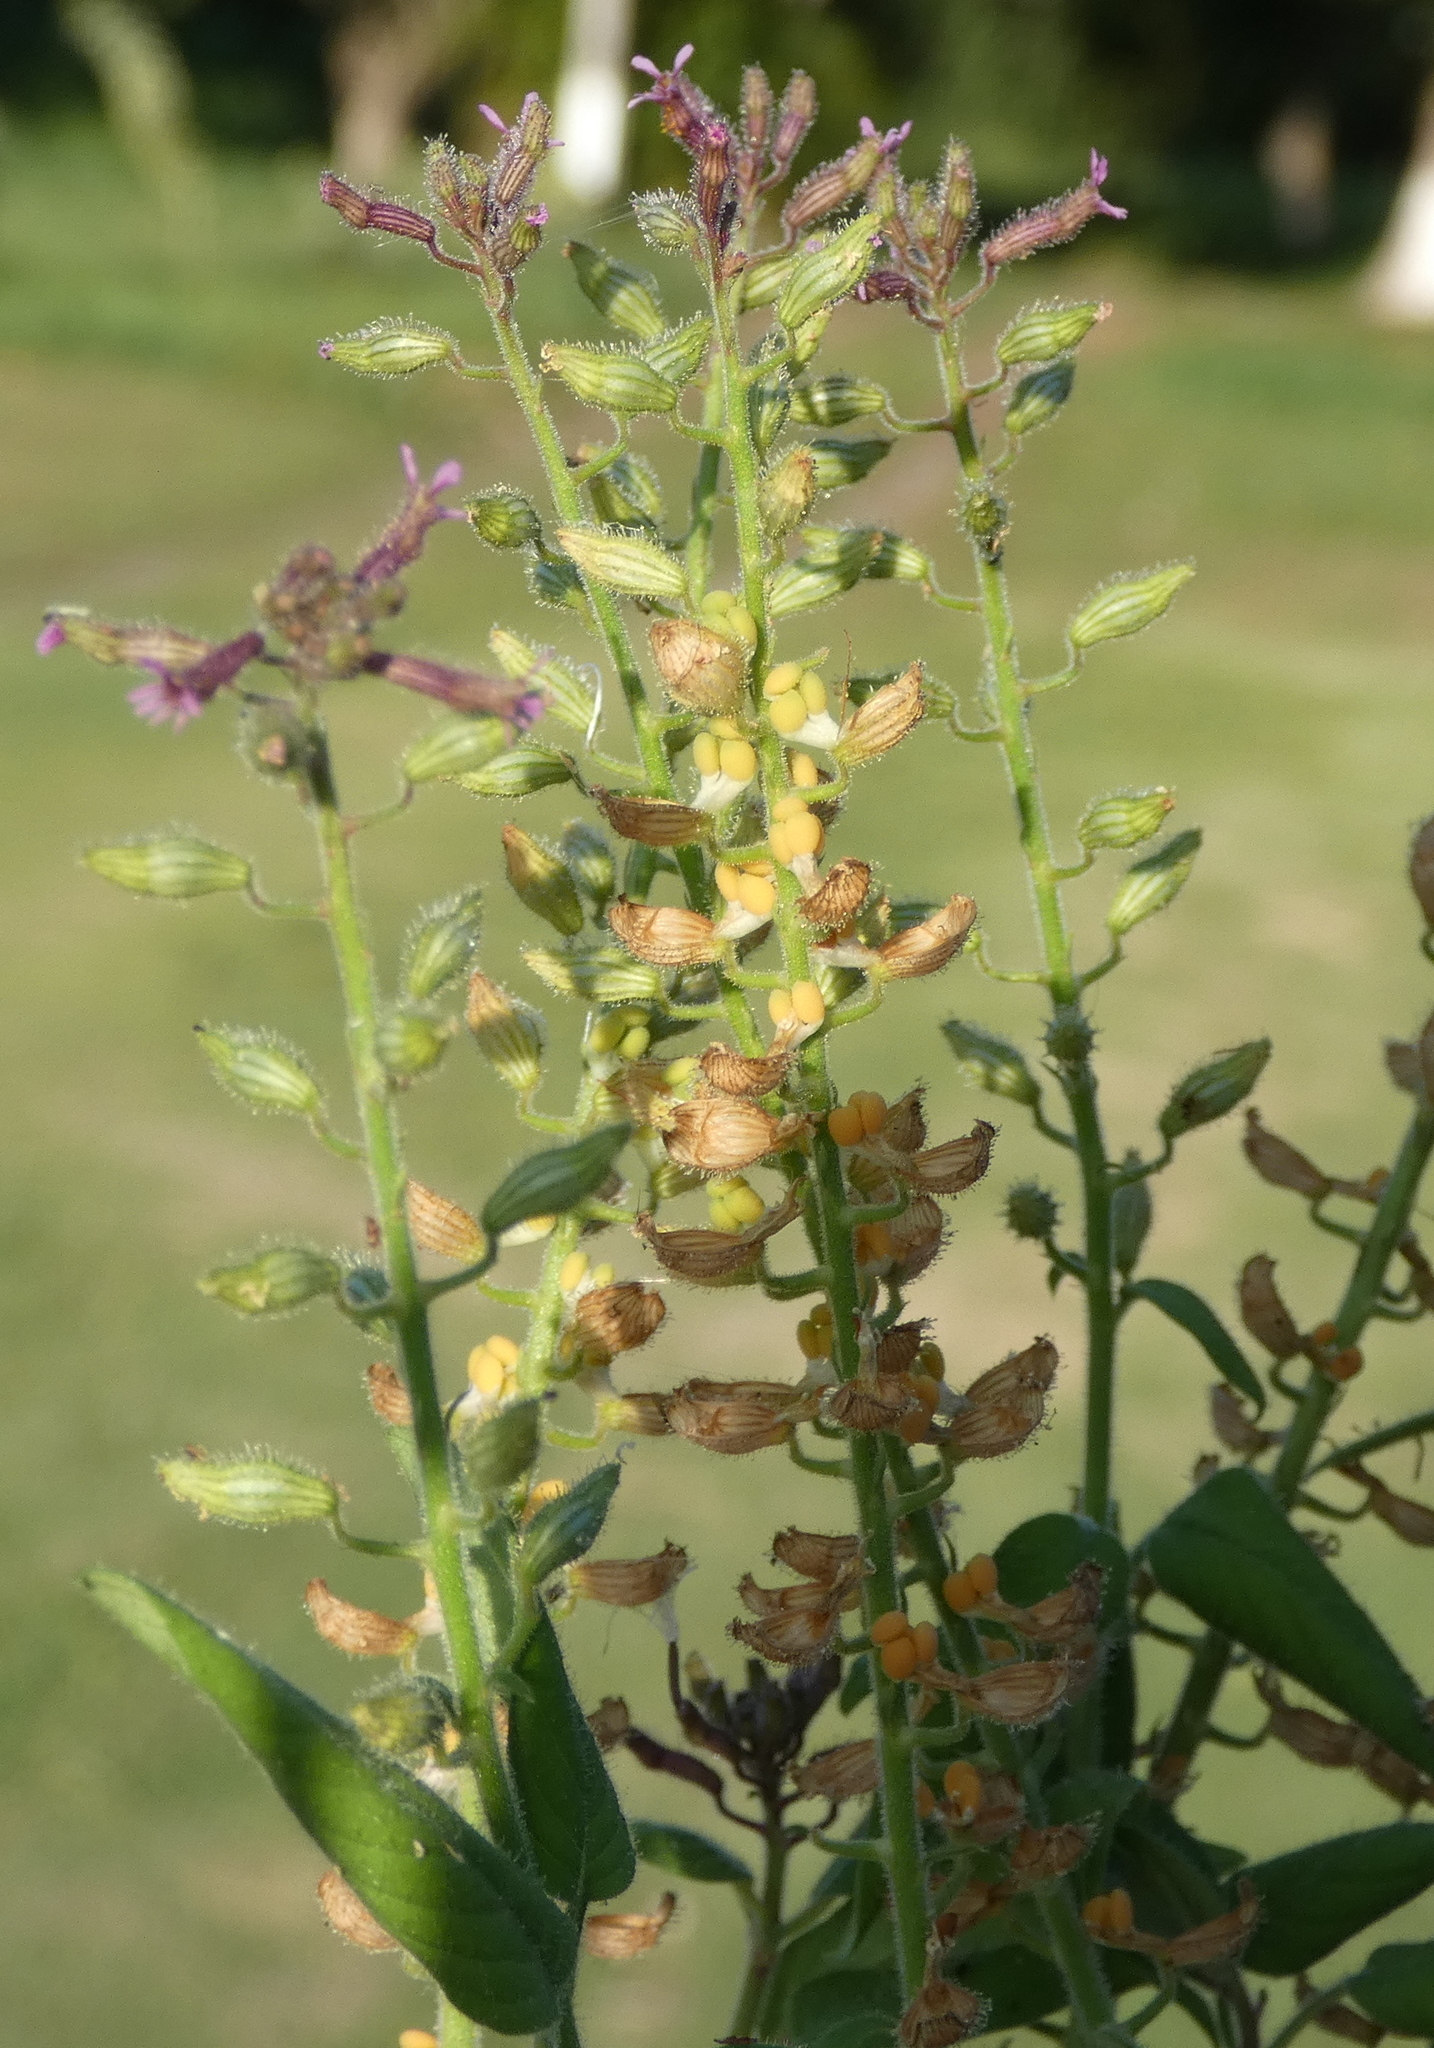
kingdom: Plantae
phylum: Tracheophyta
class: Magnoliopsida
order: Myrtales
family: Lythraceae
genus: Cuphea
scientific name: Cuphea circaeoides
